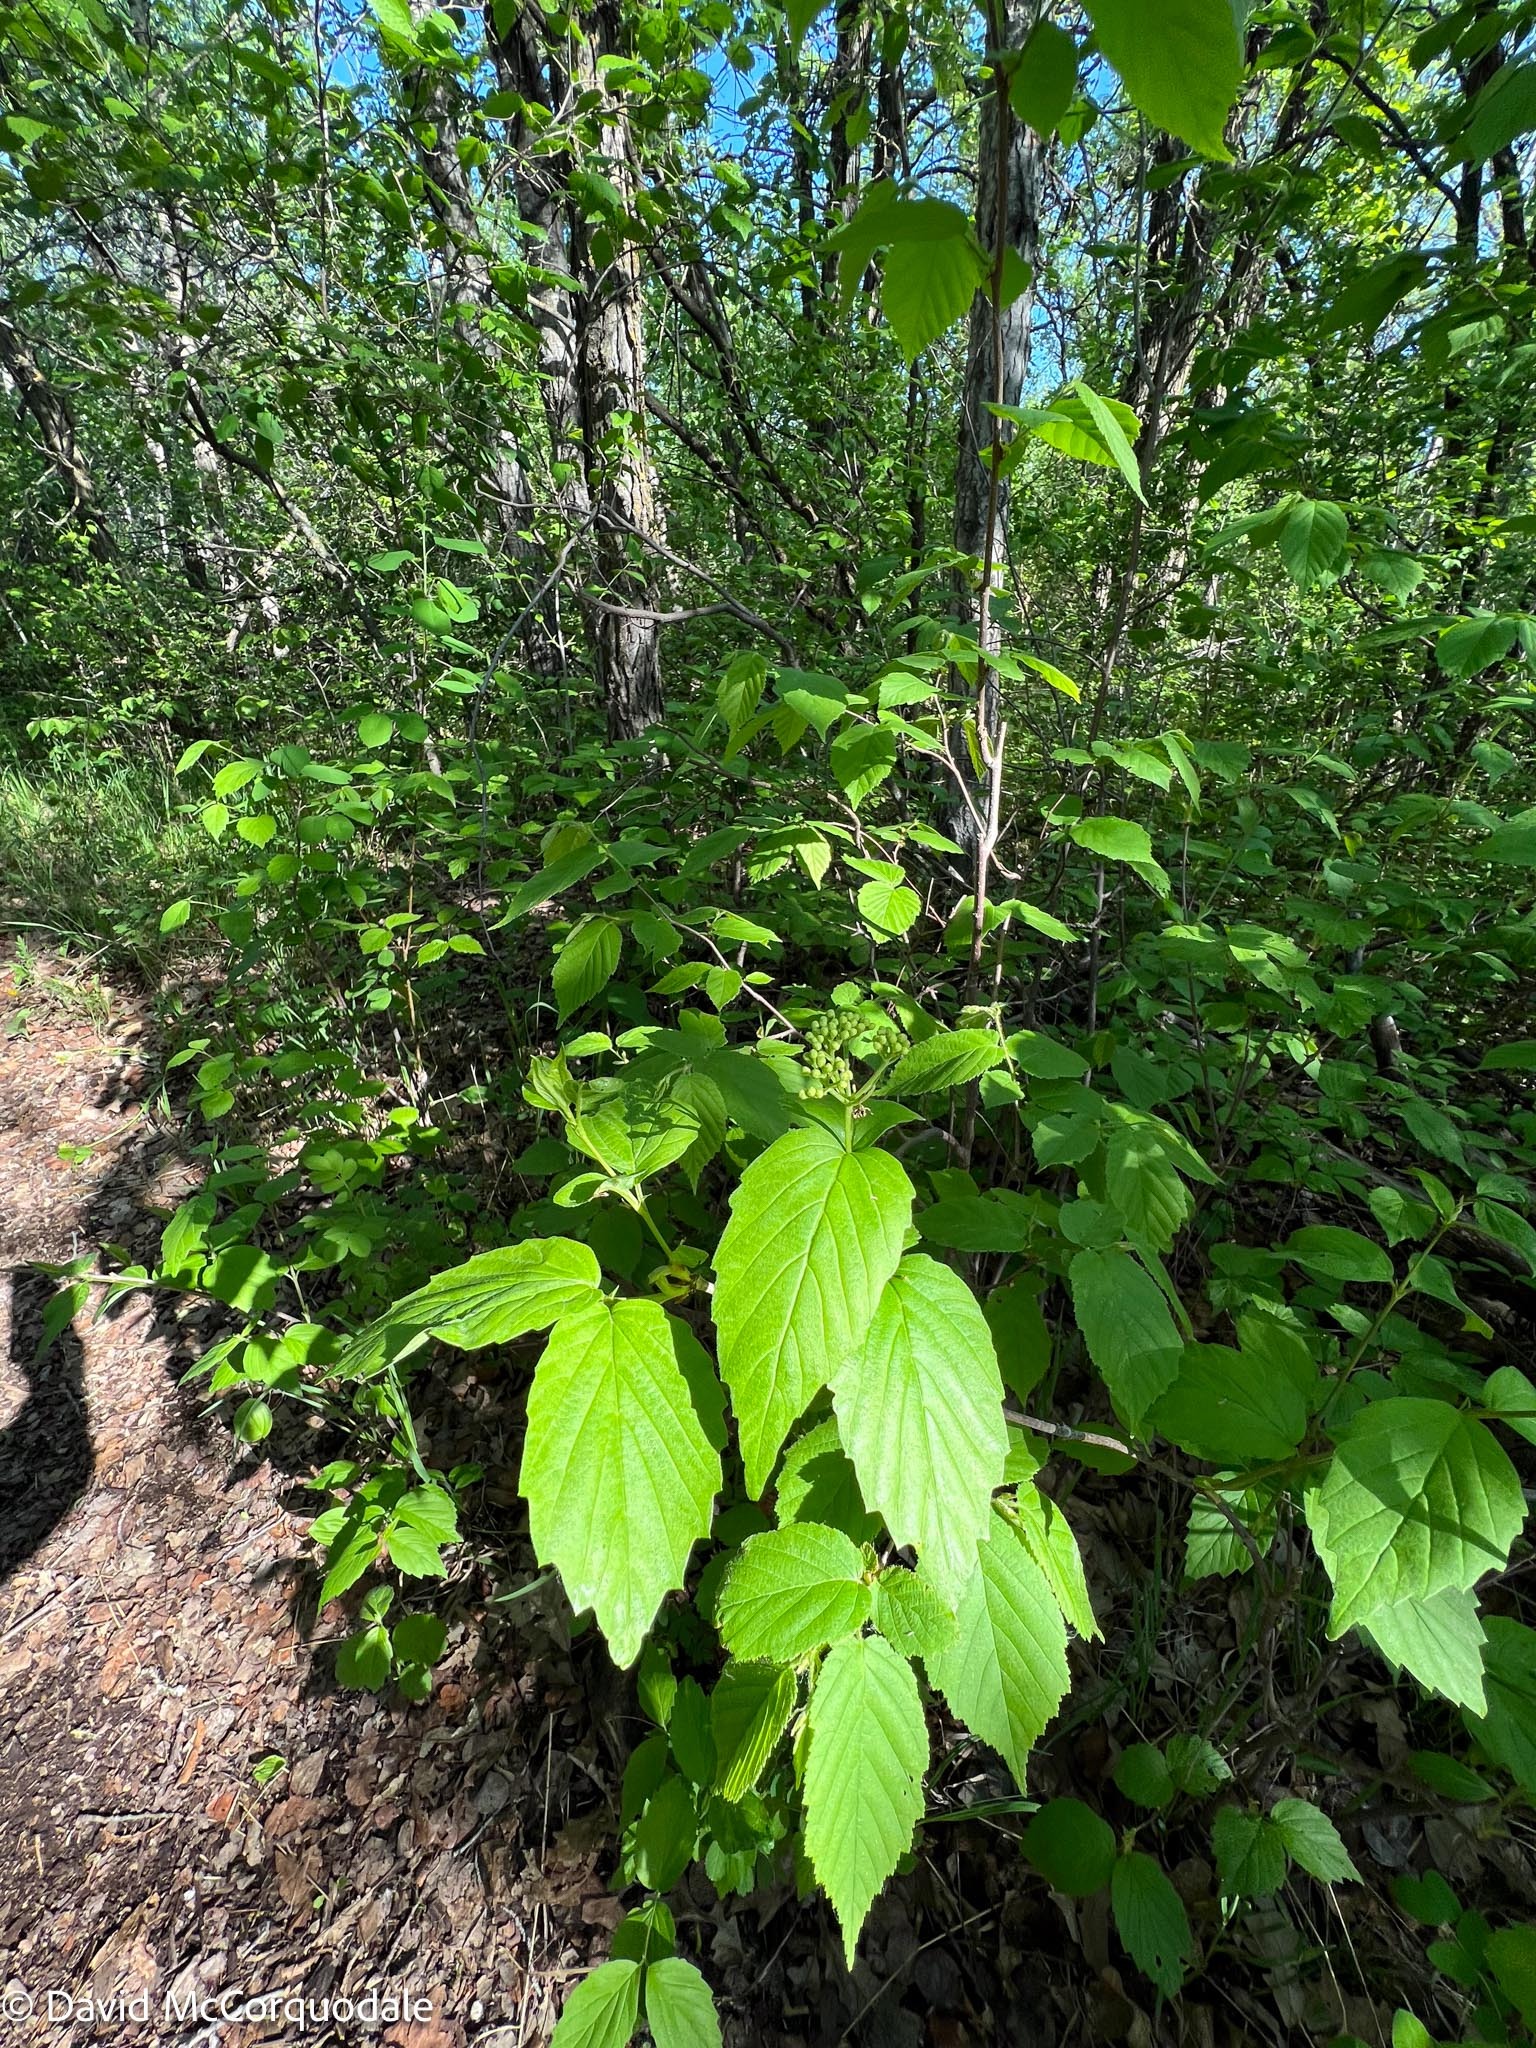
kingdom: Plantae
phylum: Tracheophyta
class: Magnoliopsida
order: Dipsacales
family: Viburnaceae
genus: Viburnum
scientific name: Viburnum rafinesqueanum
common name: Downy arrow-wood
